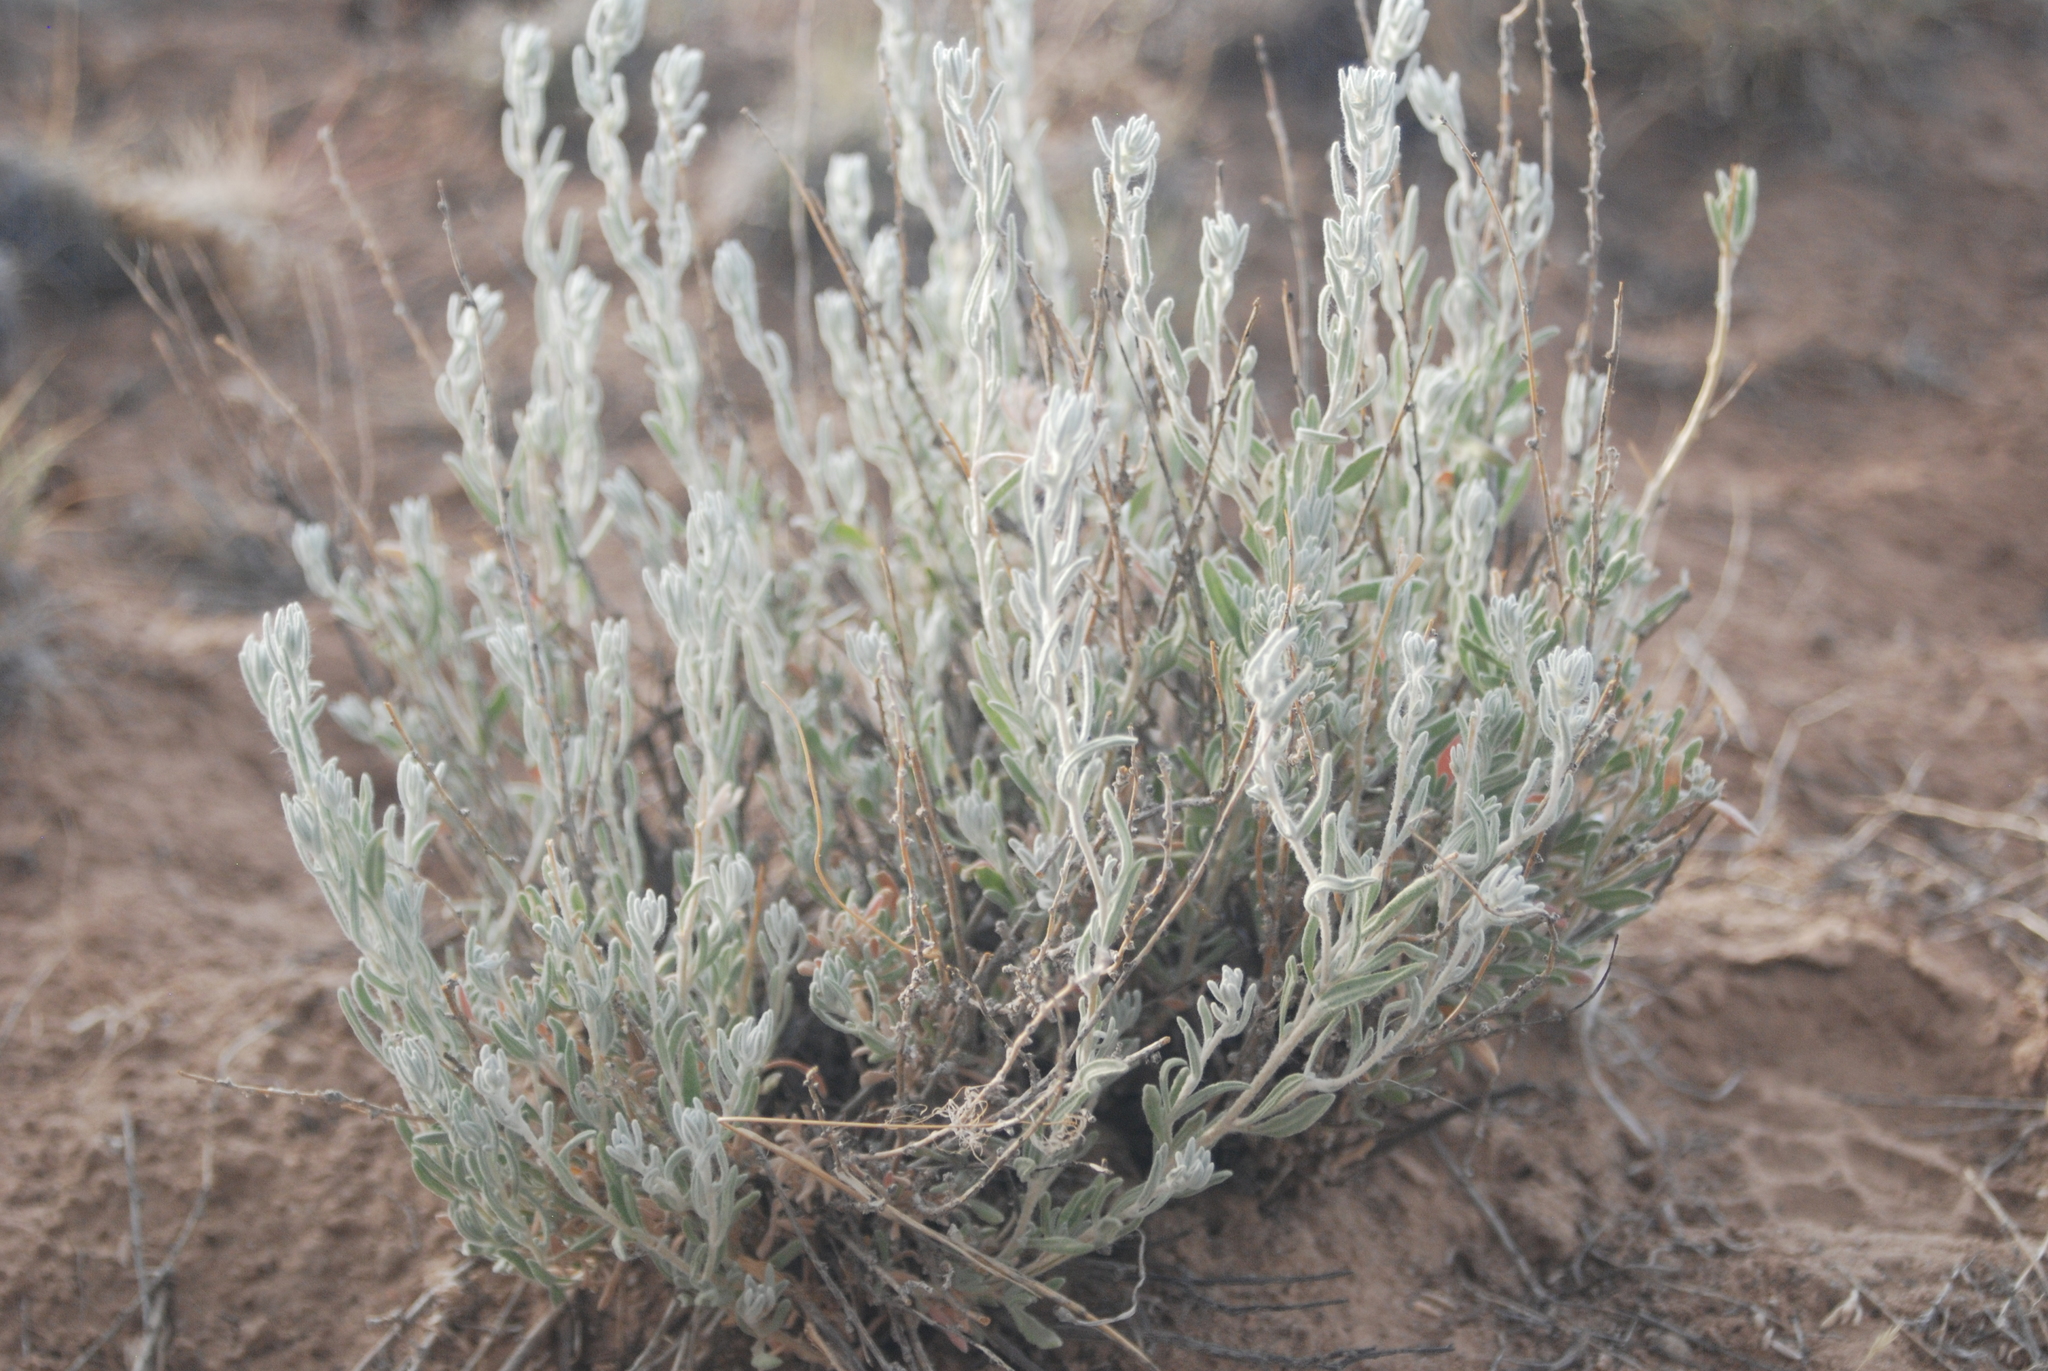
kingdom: Plantae
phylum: Tracheophyta
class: Magnoliopsida
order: Caryophyllales
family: Amaranthaceae
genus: Krascheninnikovia
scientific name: Krascheninnikovia lanata
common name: Winterfat
